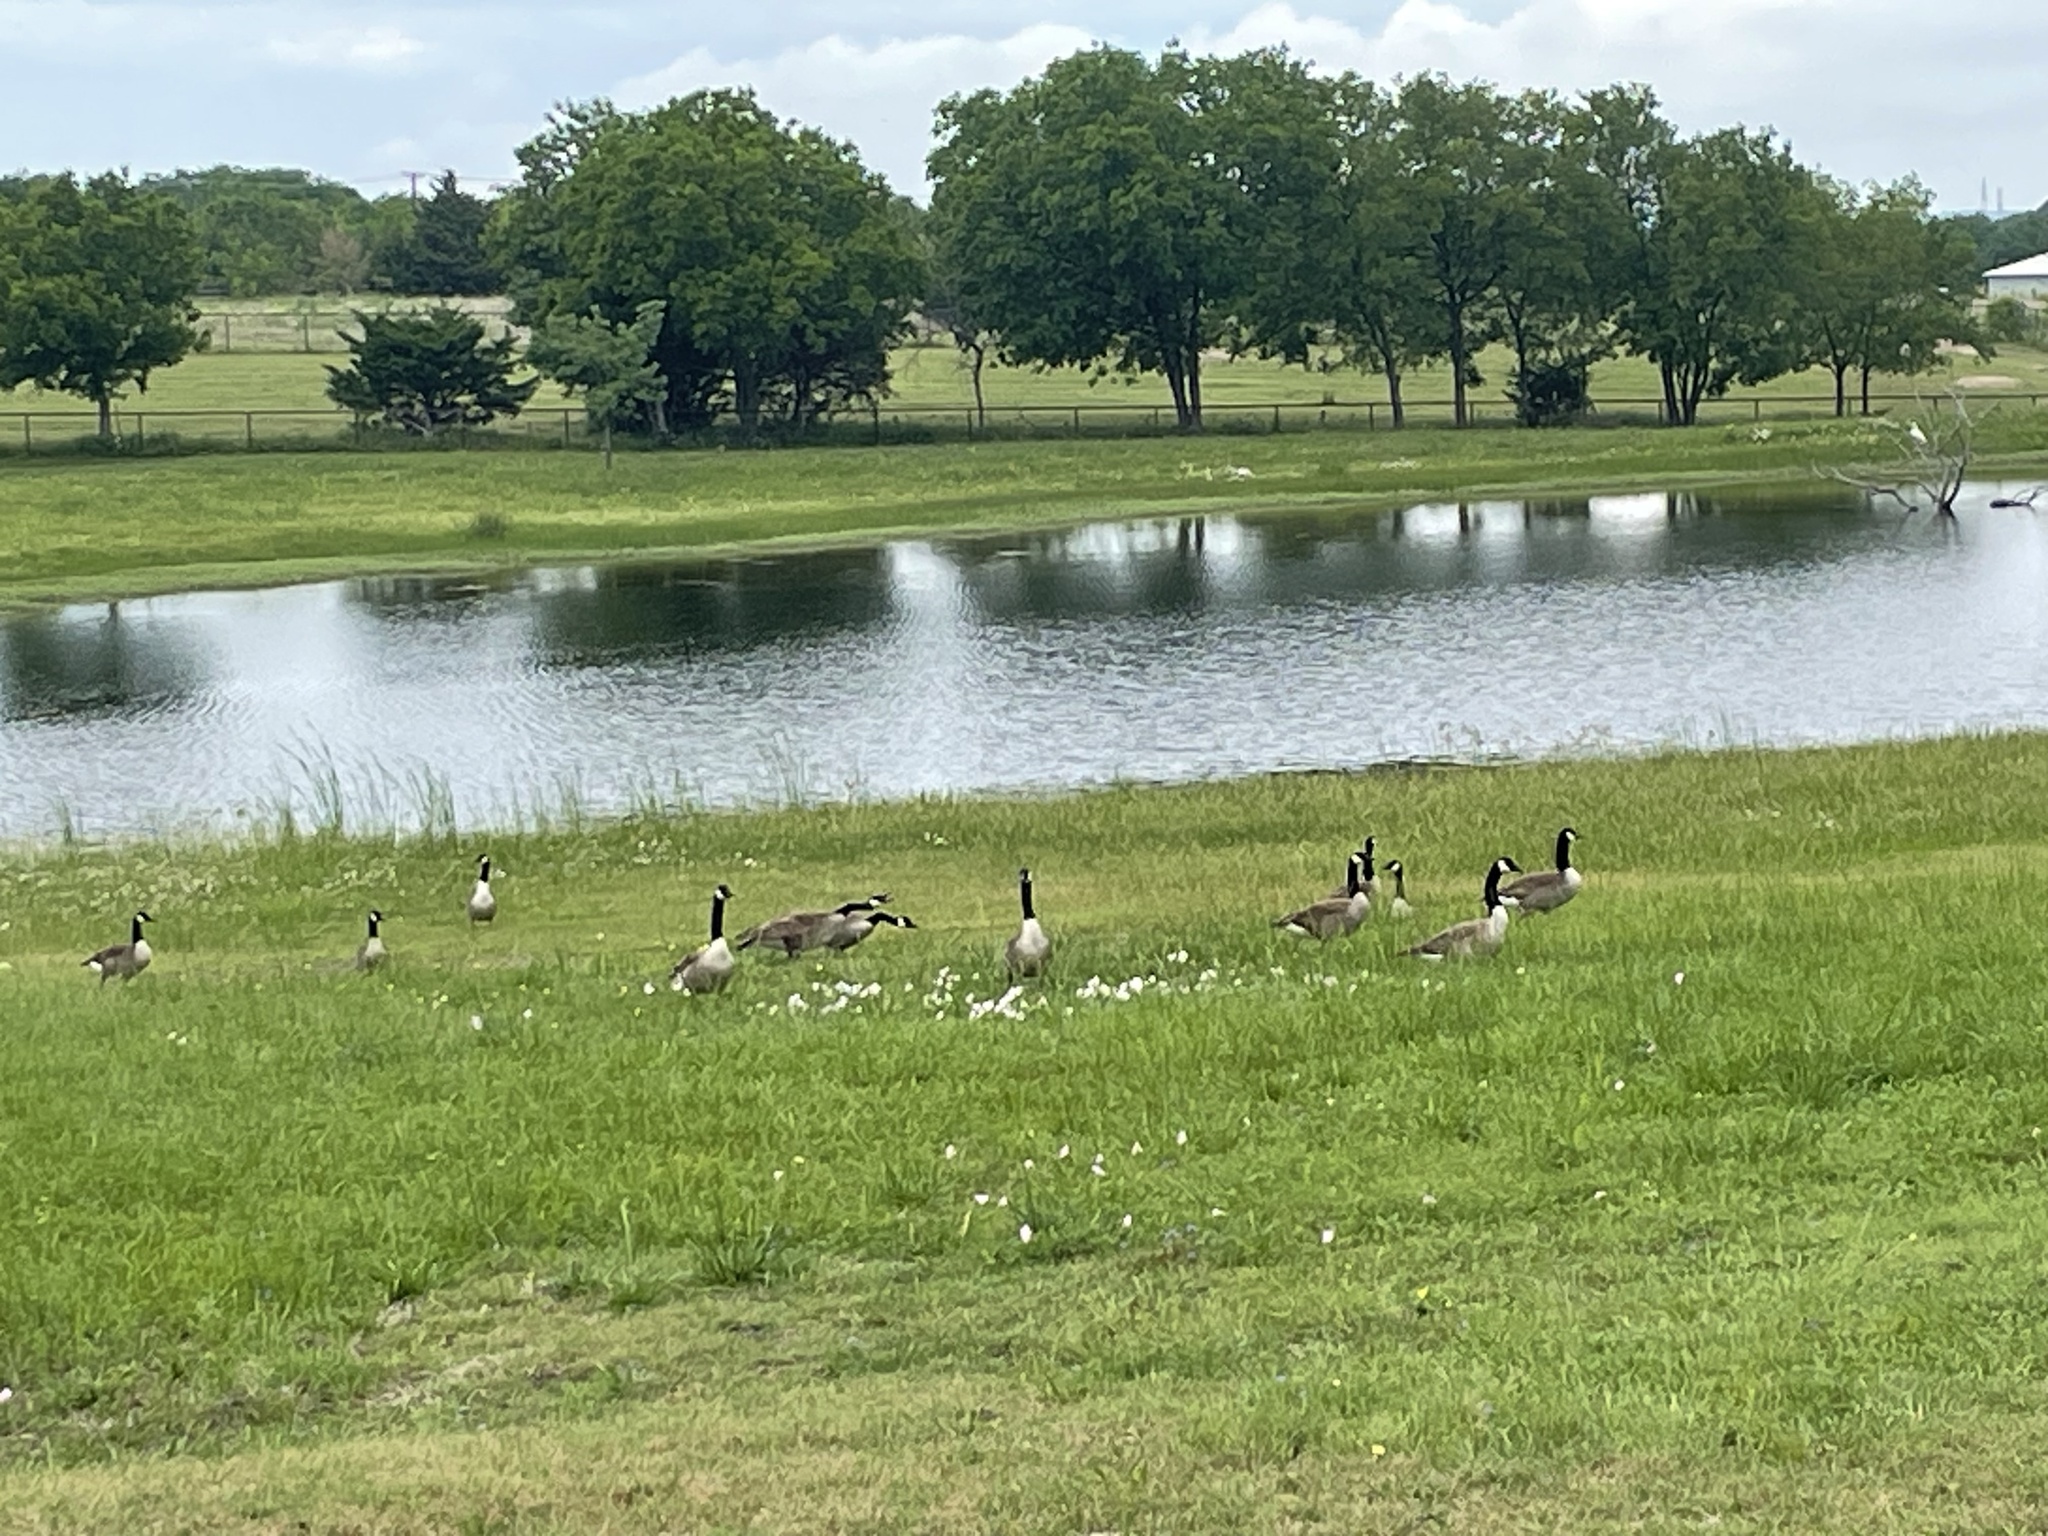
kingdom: Animalia
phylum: Chordata
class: Aves
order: Anseriformes
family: Anatidae
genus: Branta
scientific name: Branta canadensis
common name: Canada goose
